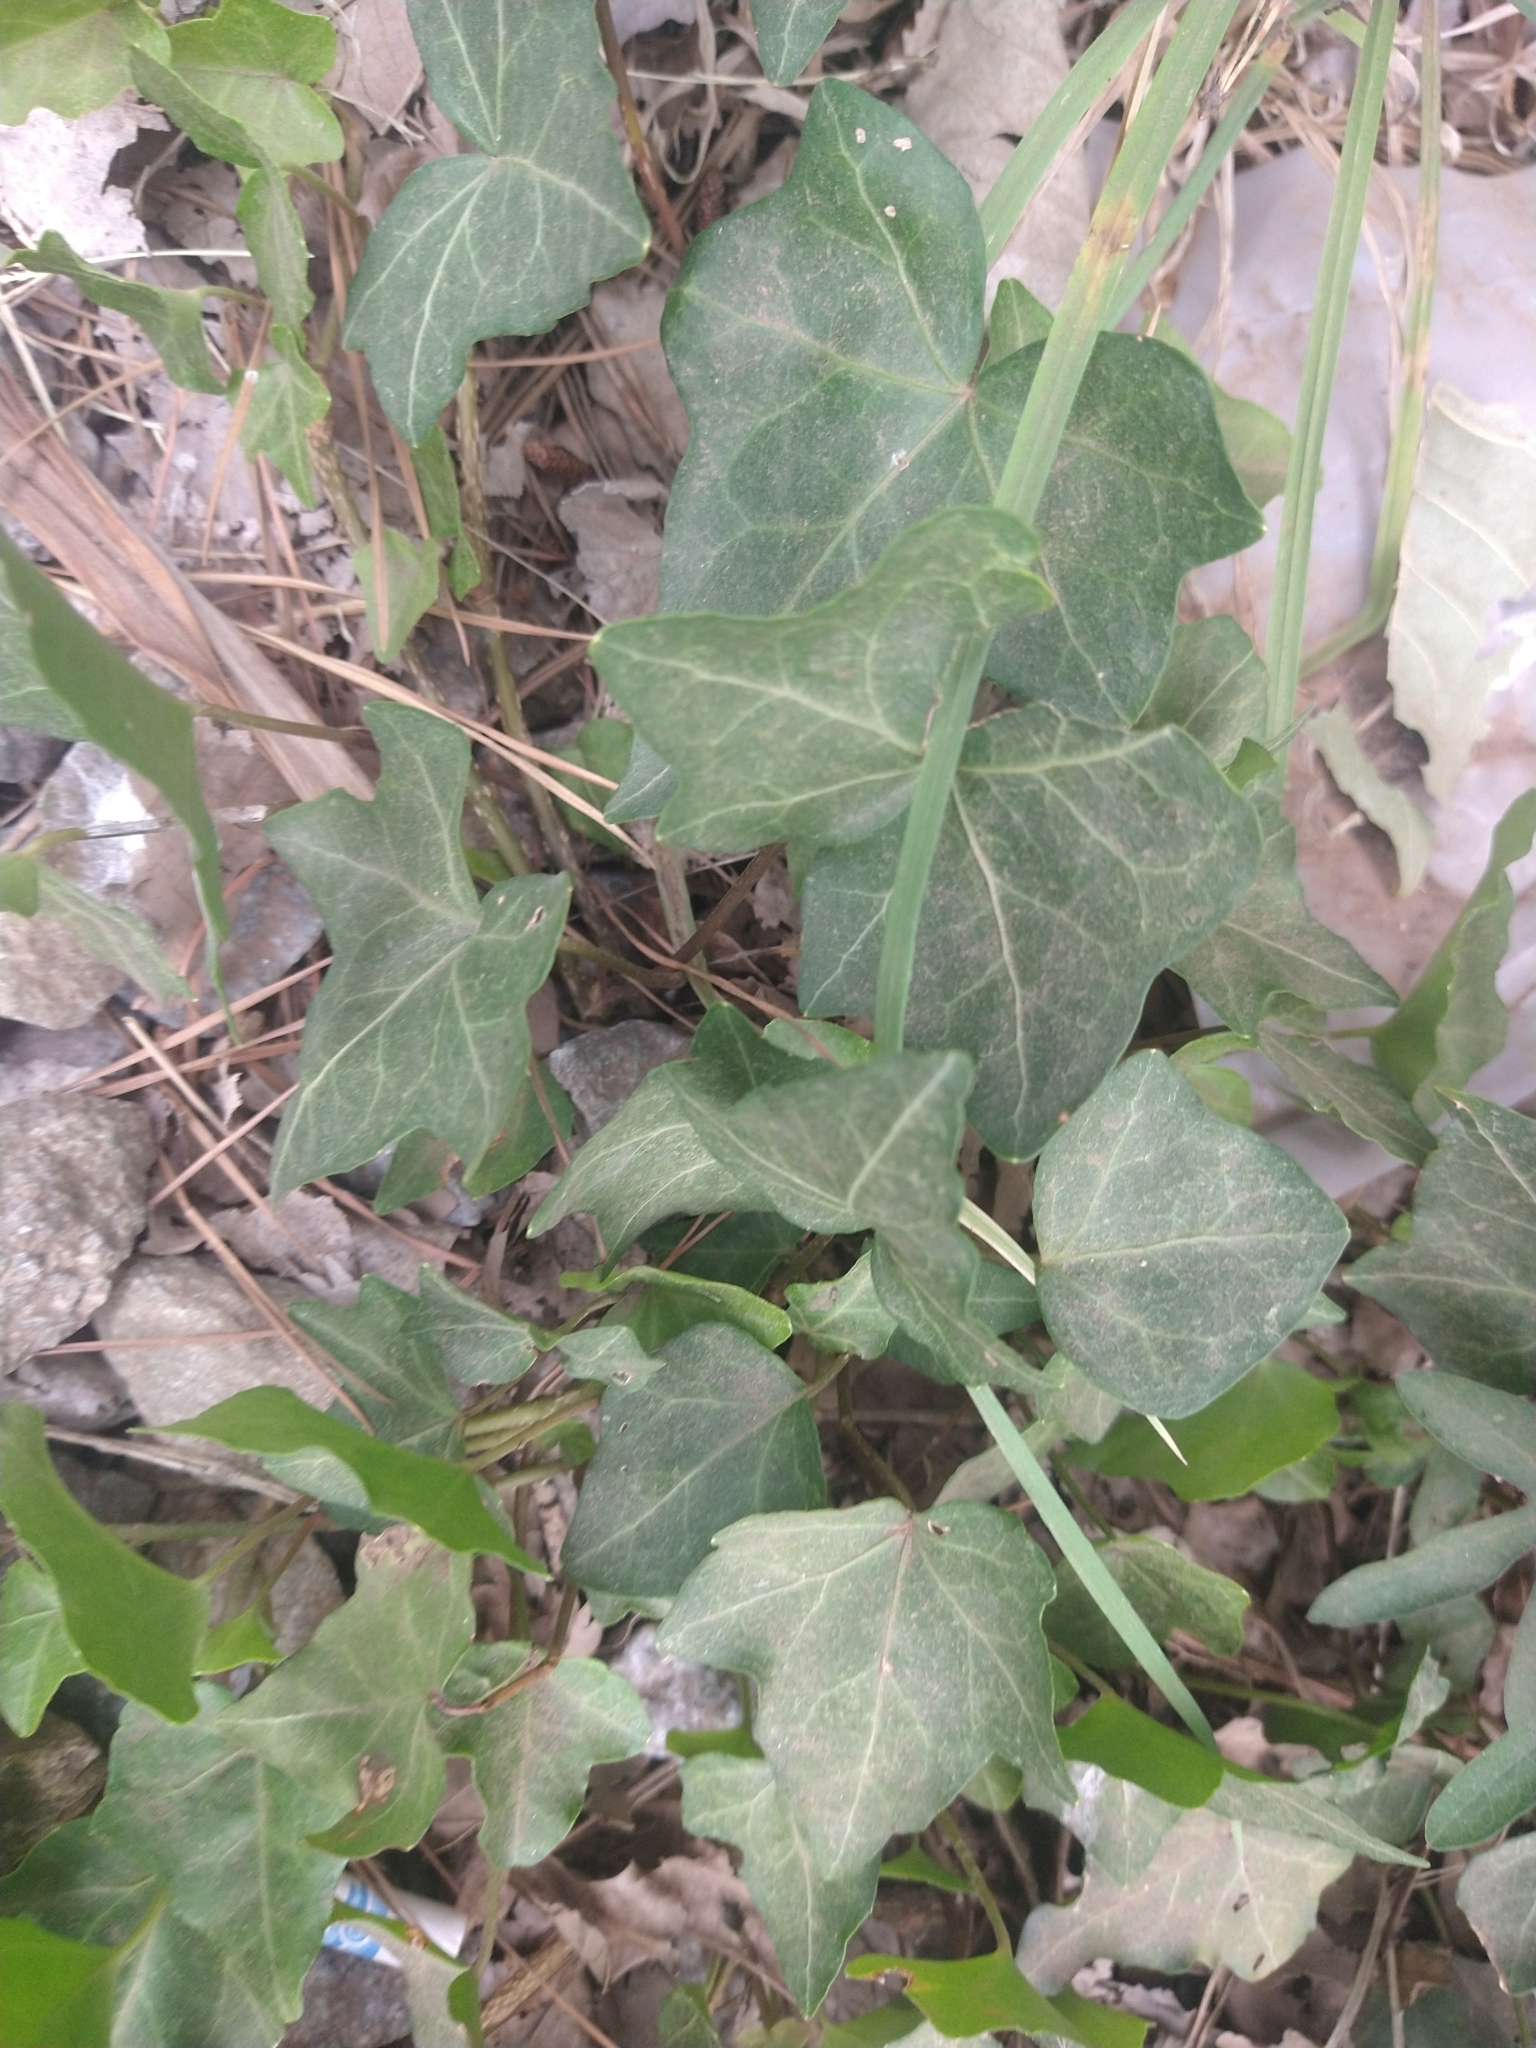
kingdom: Plantae
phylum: Tracheophyta
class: Magnoliopsida
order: Apiales
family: Araliaceae
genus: Hedera
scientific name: Hedera helix
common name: Ivy
